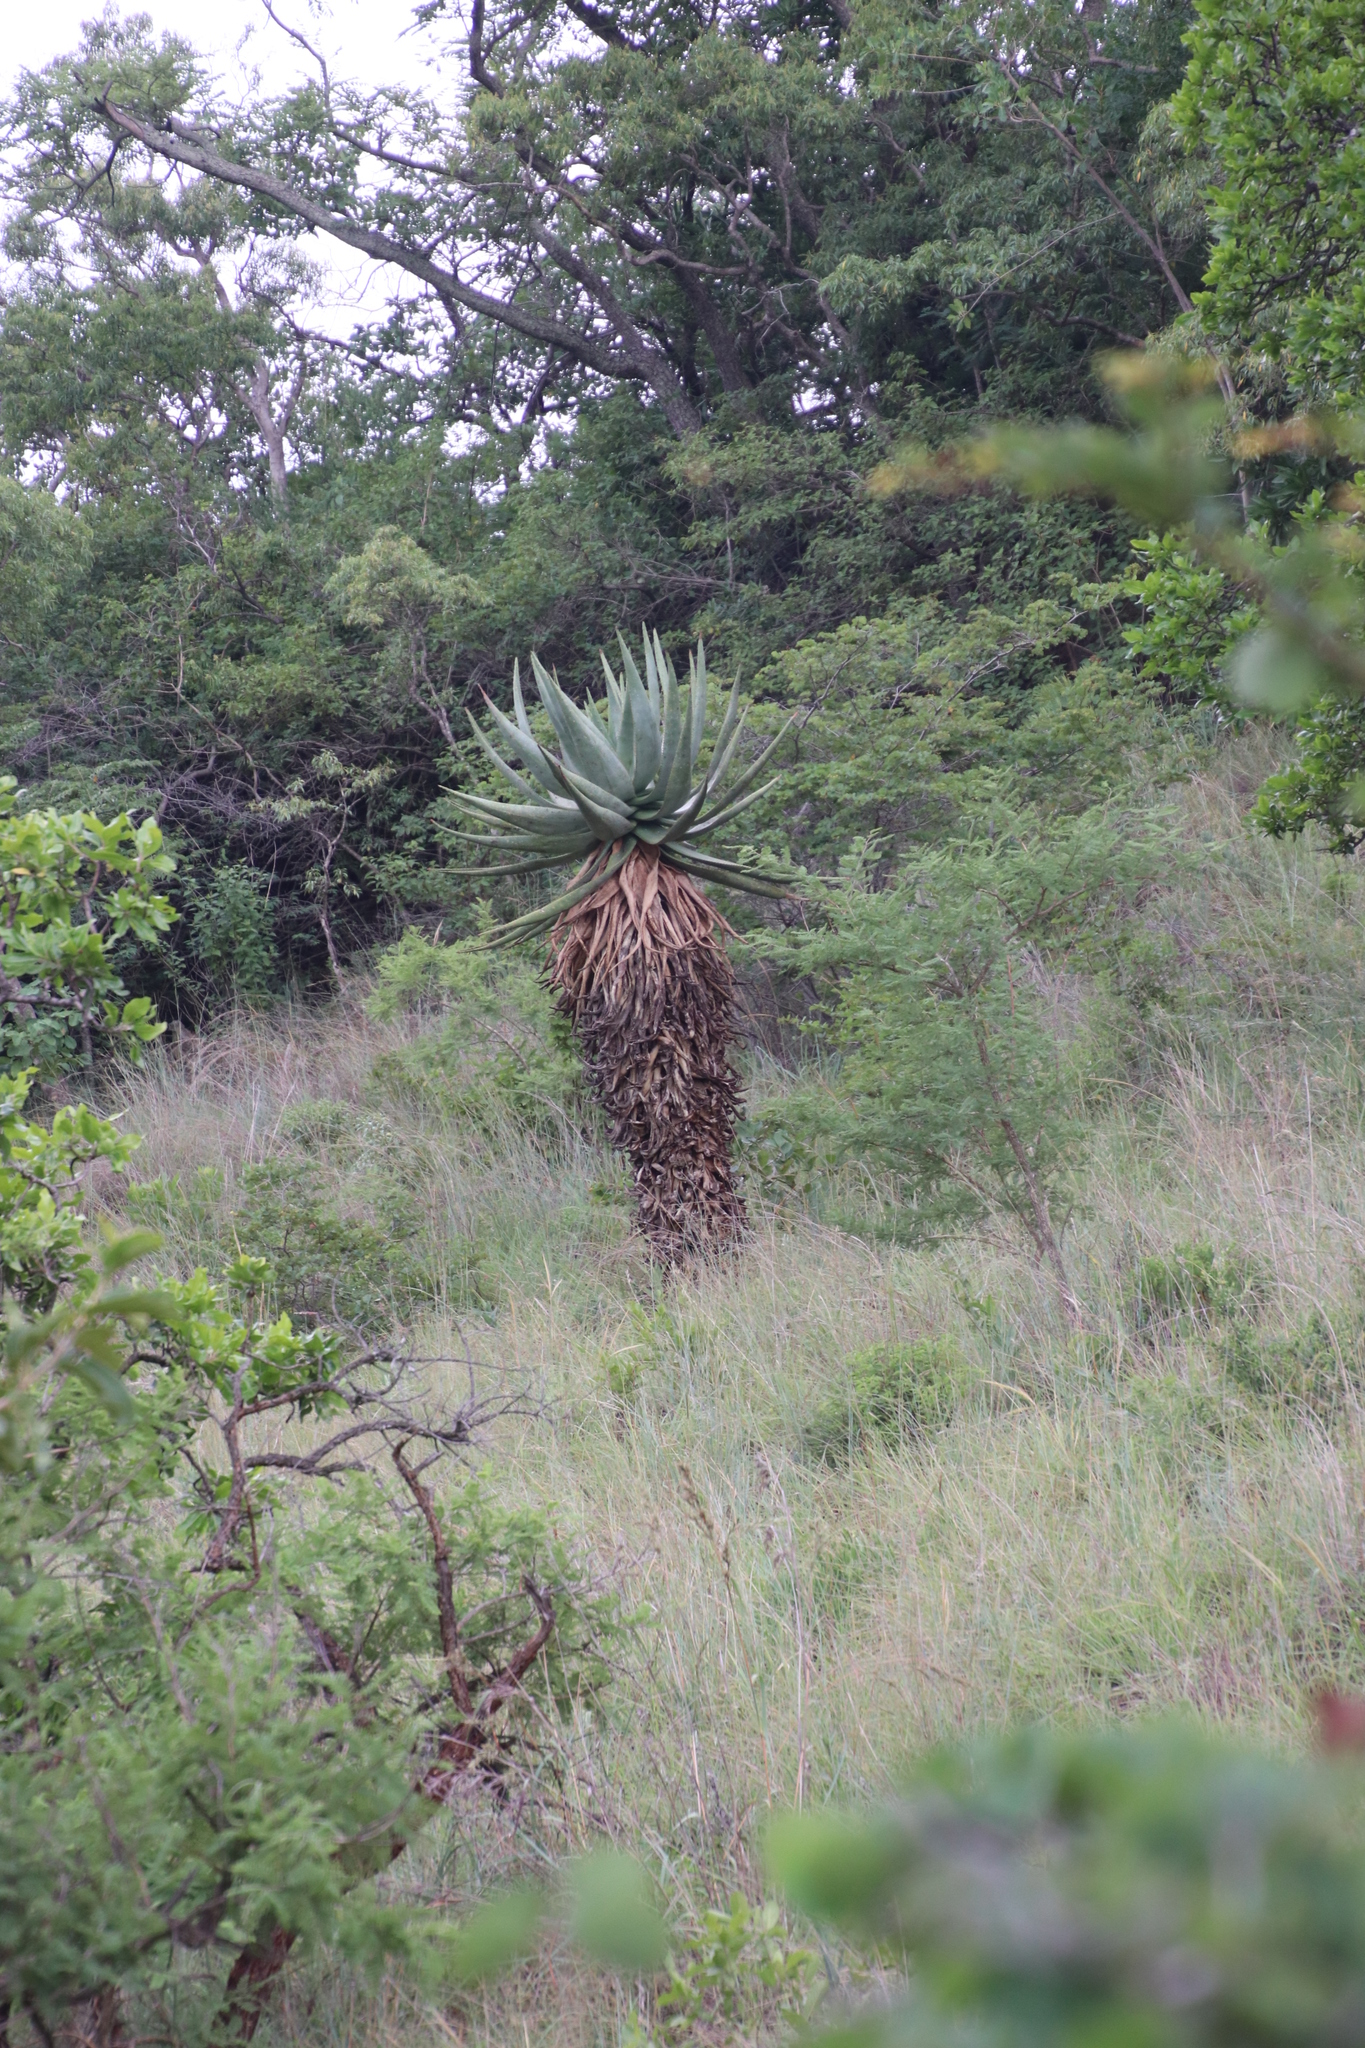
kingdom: Plantae
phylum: Tracheophyta
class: Liliopsida
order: Asparagales
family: Asphodelaceae
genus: Aloe
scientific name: Aloe marlothii
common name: Flat-flowered aloe
